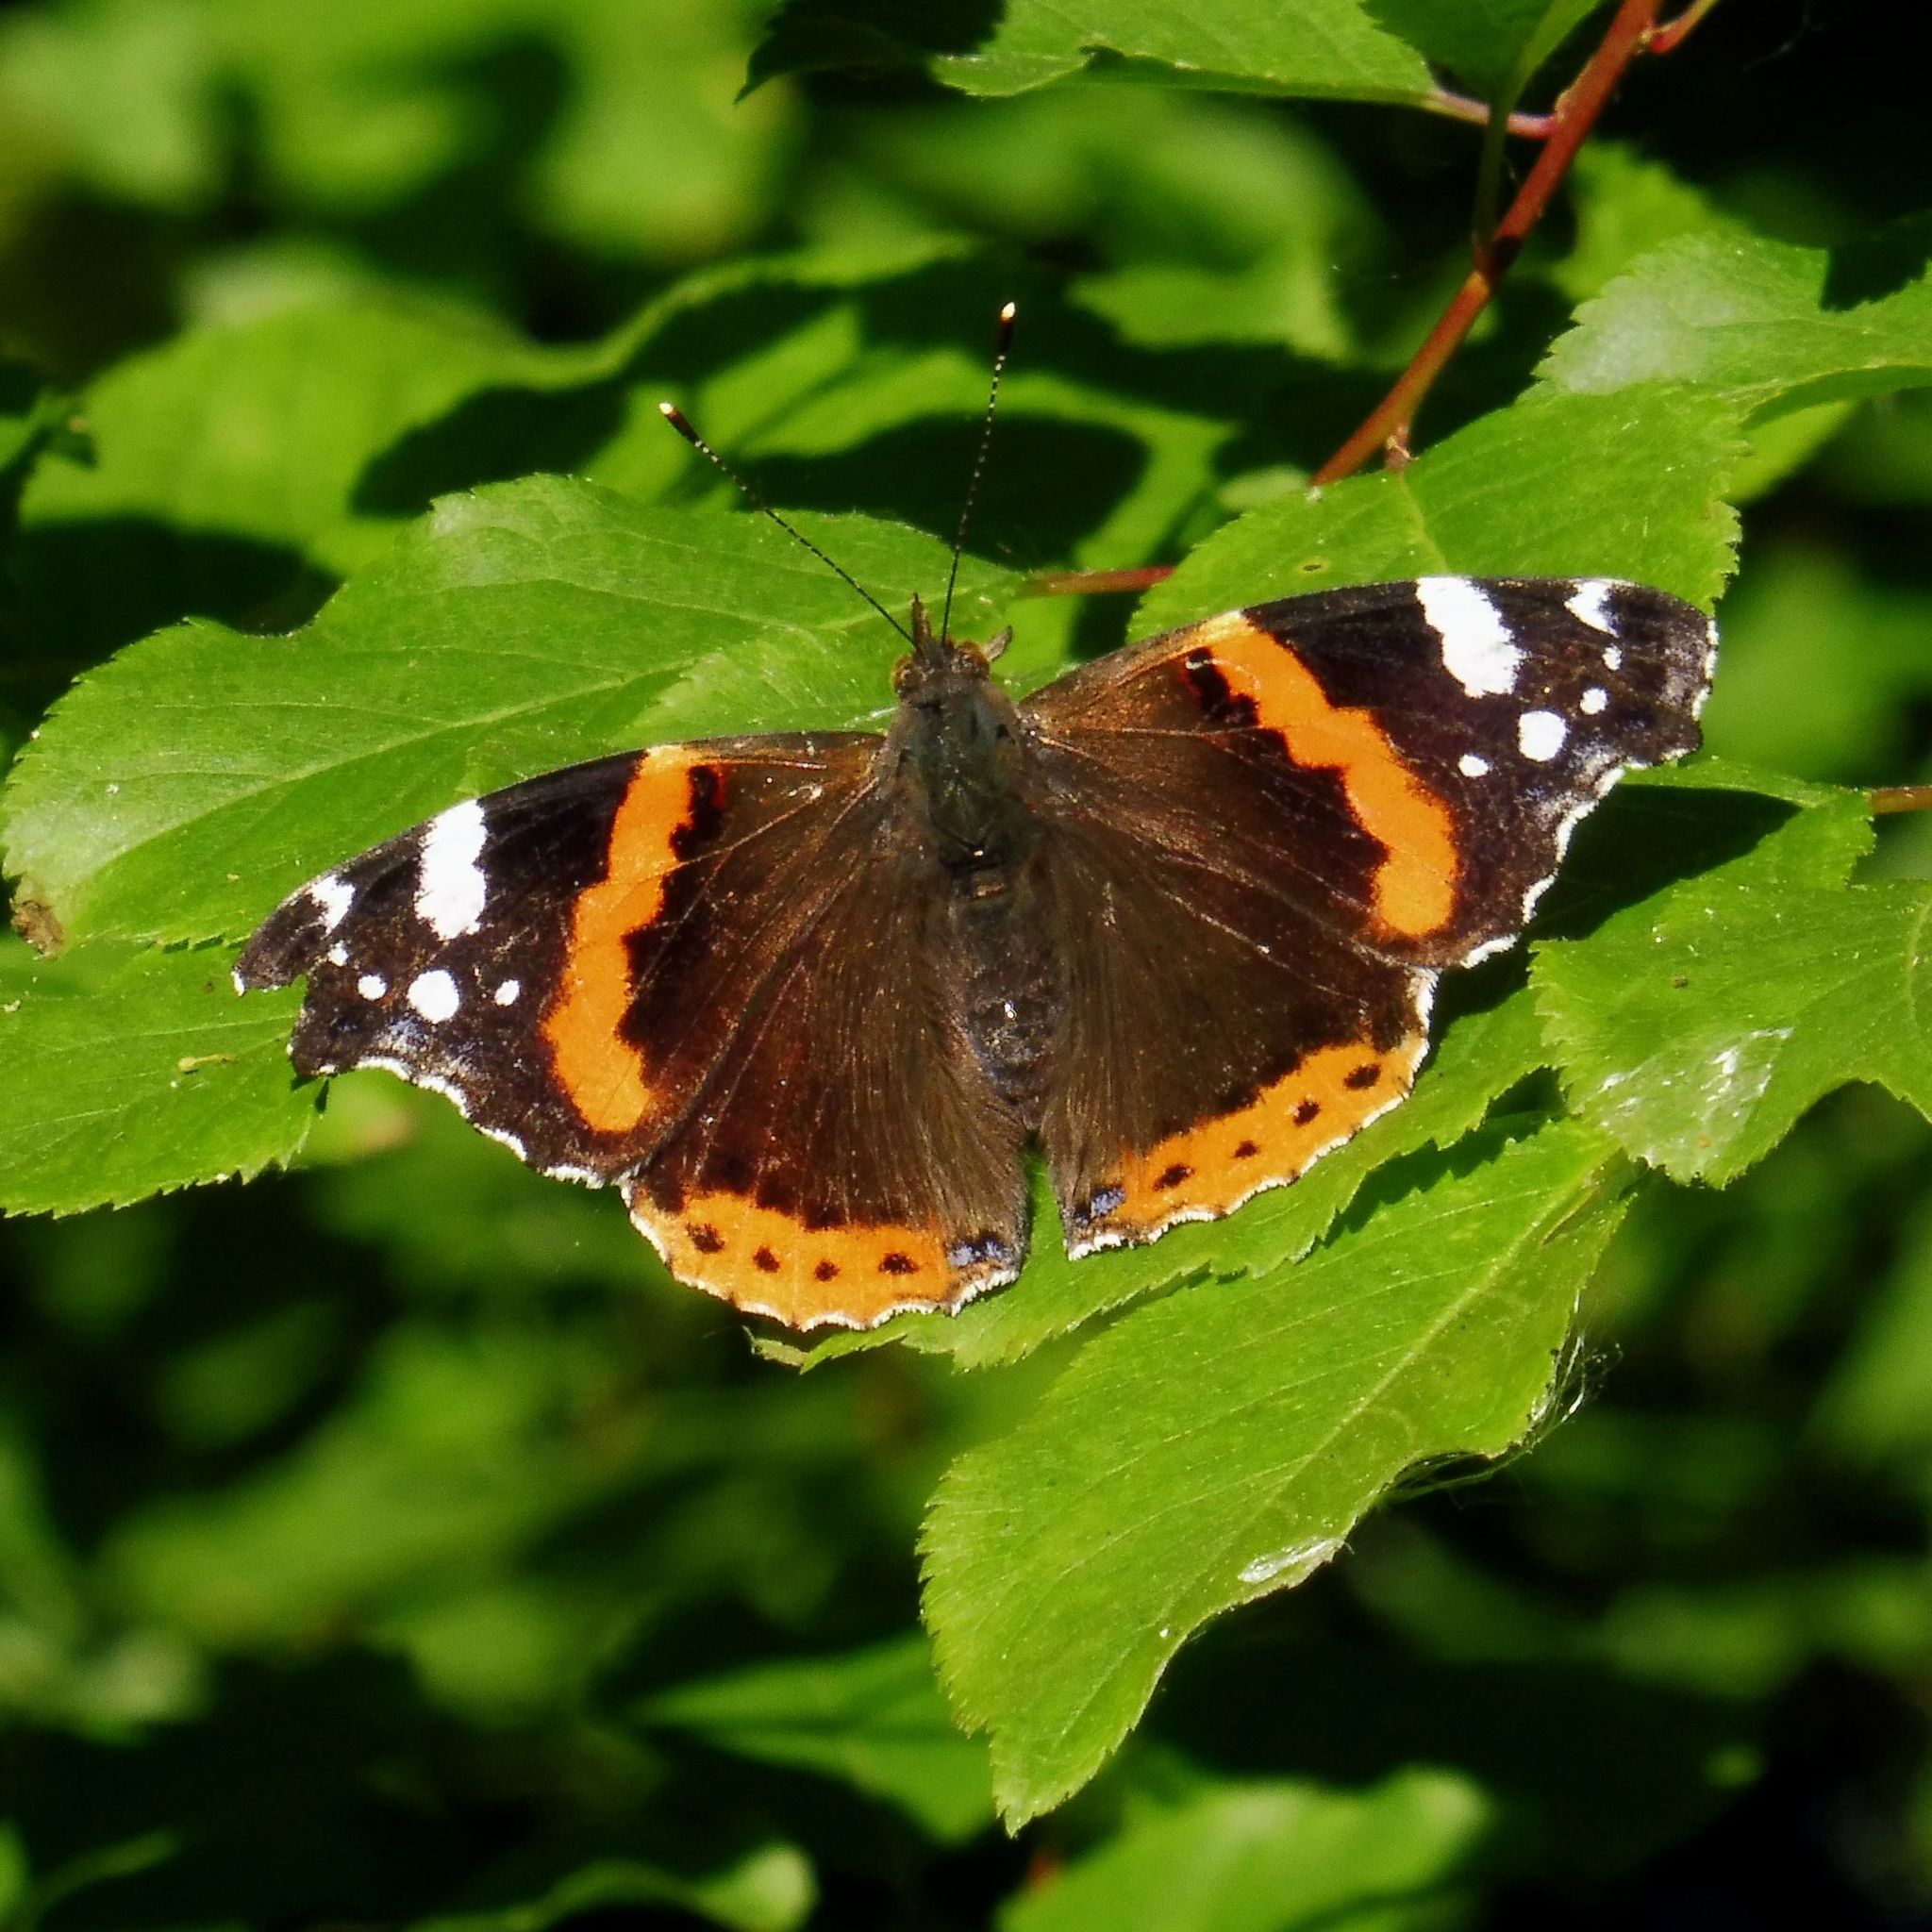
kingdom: Animalia
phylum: Arthropoda
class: Insecta
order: Lepidoptera
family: Nymphalidae
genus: Vanessa
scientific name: Vanessa atalanta
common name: Red admiral
